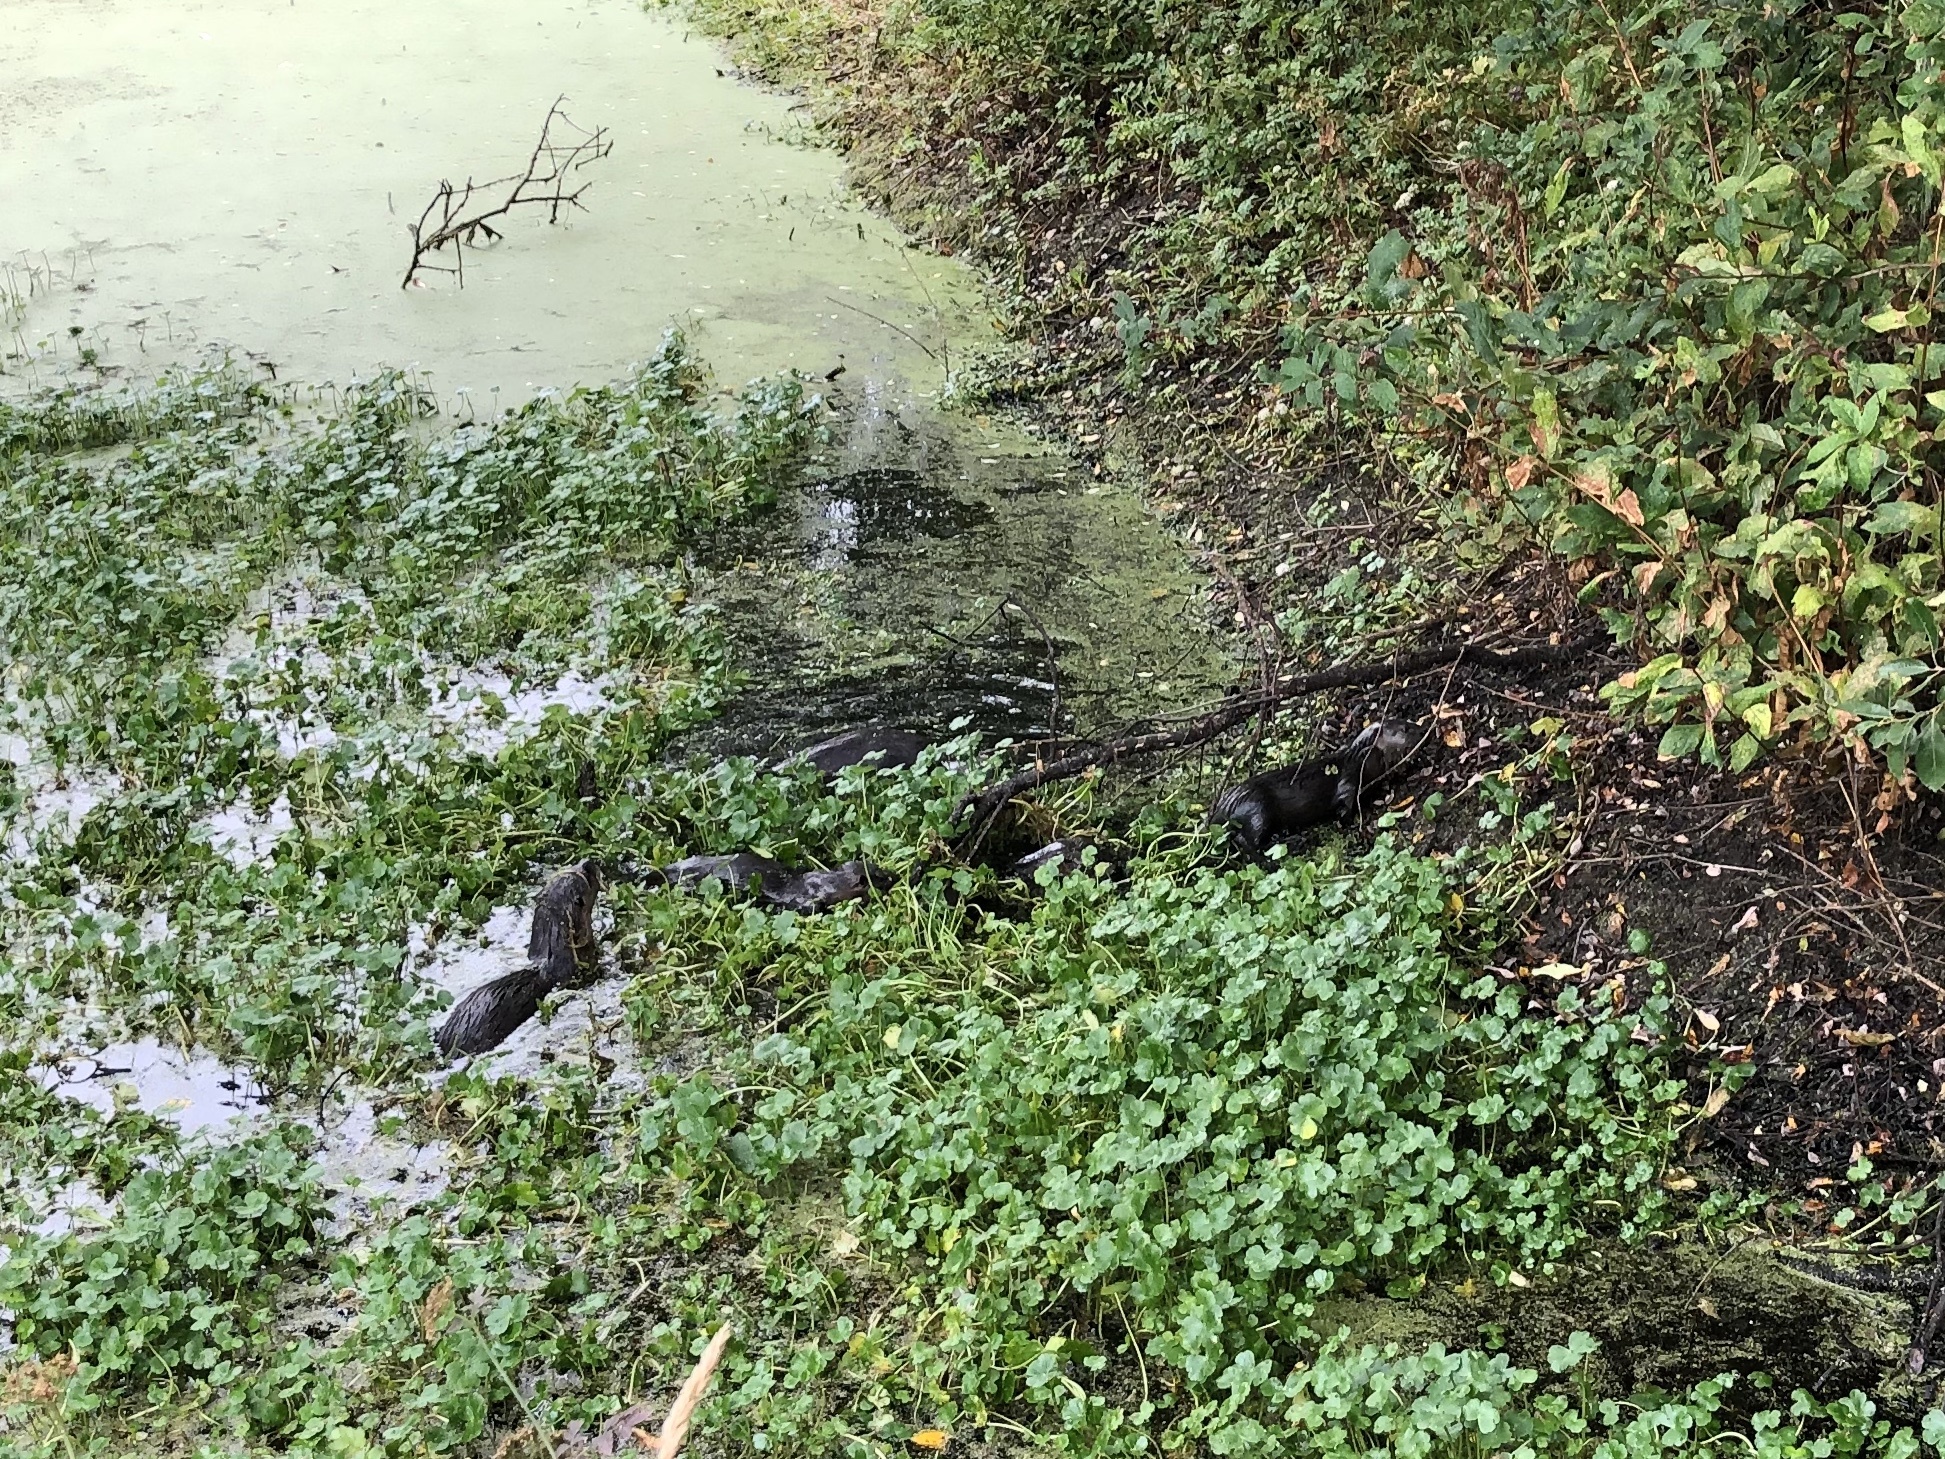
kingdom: Animalia
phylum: Chordata
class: Mammalia
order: Carnivora
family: Mustelidae
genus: Lontra
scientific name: Lontra canadensis
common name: North american river otter
